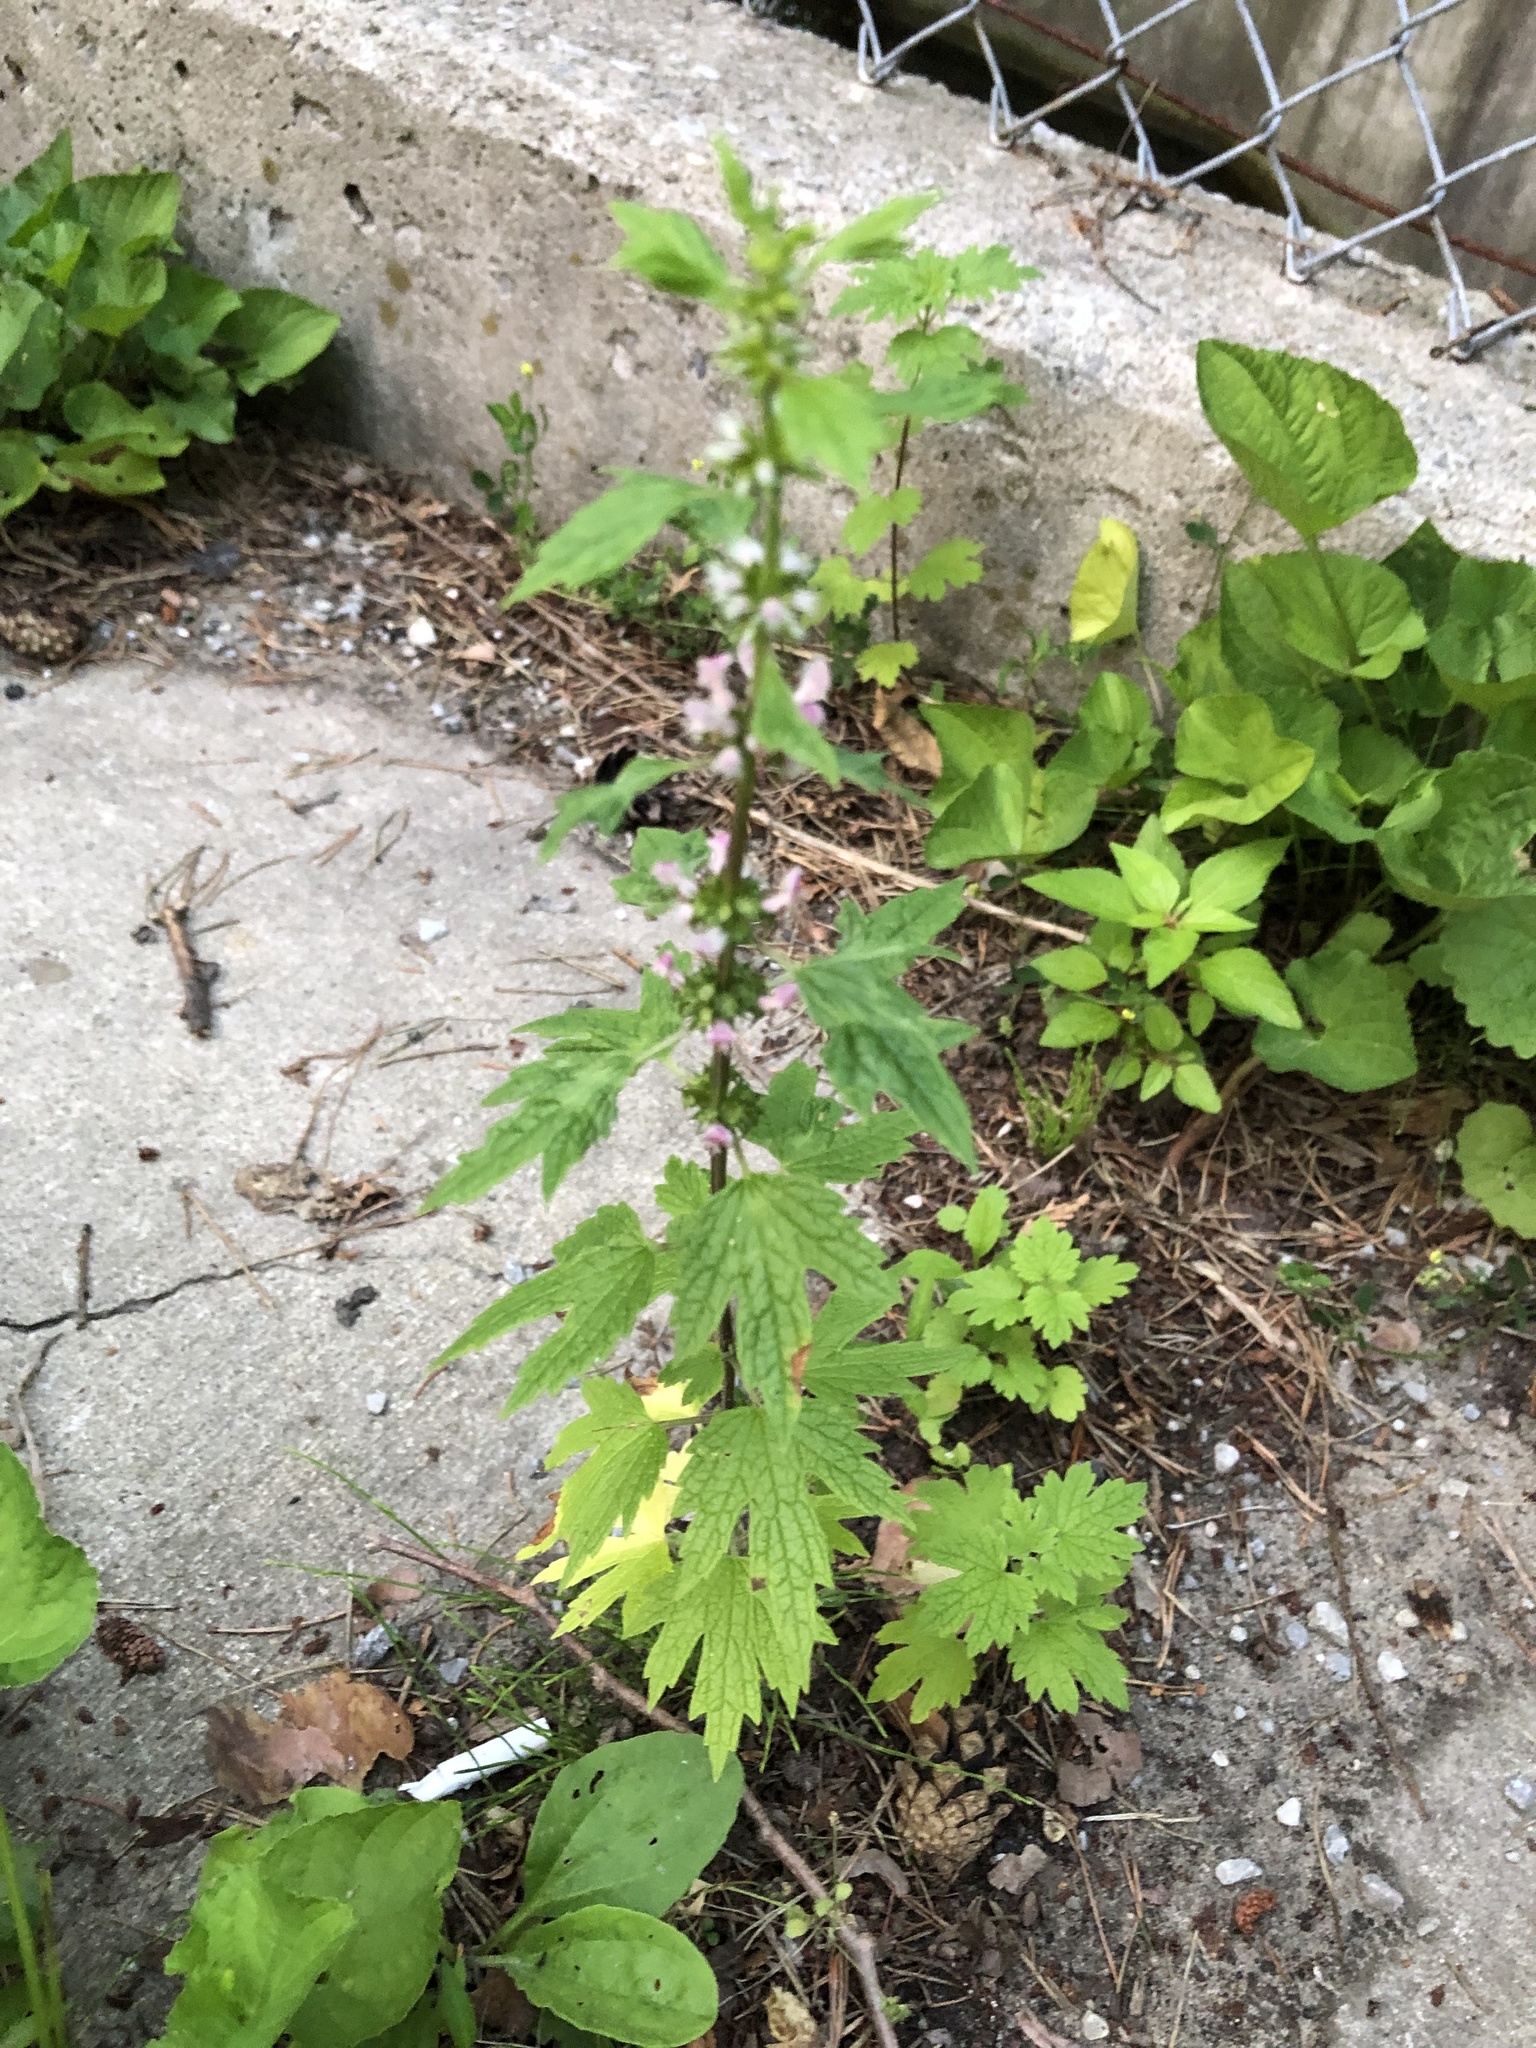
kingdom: Plantae
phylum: Tracheophyta
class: Magnoliopsida
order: Lamiales
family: Lamiaceae
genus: Leonurus
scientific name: Leonurus cardiaca
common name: Motherwort
